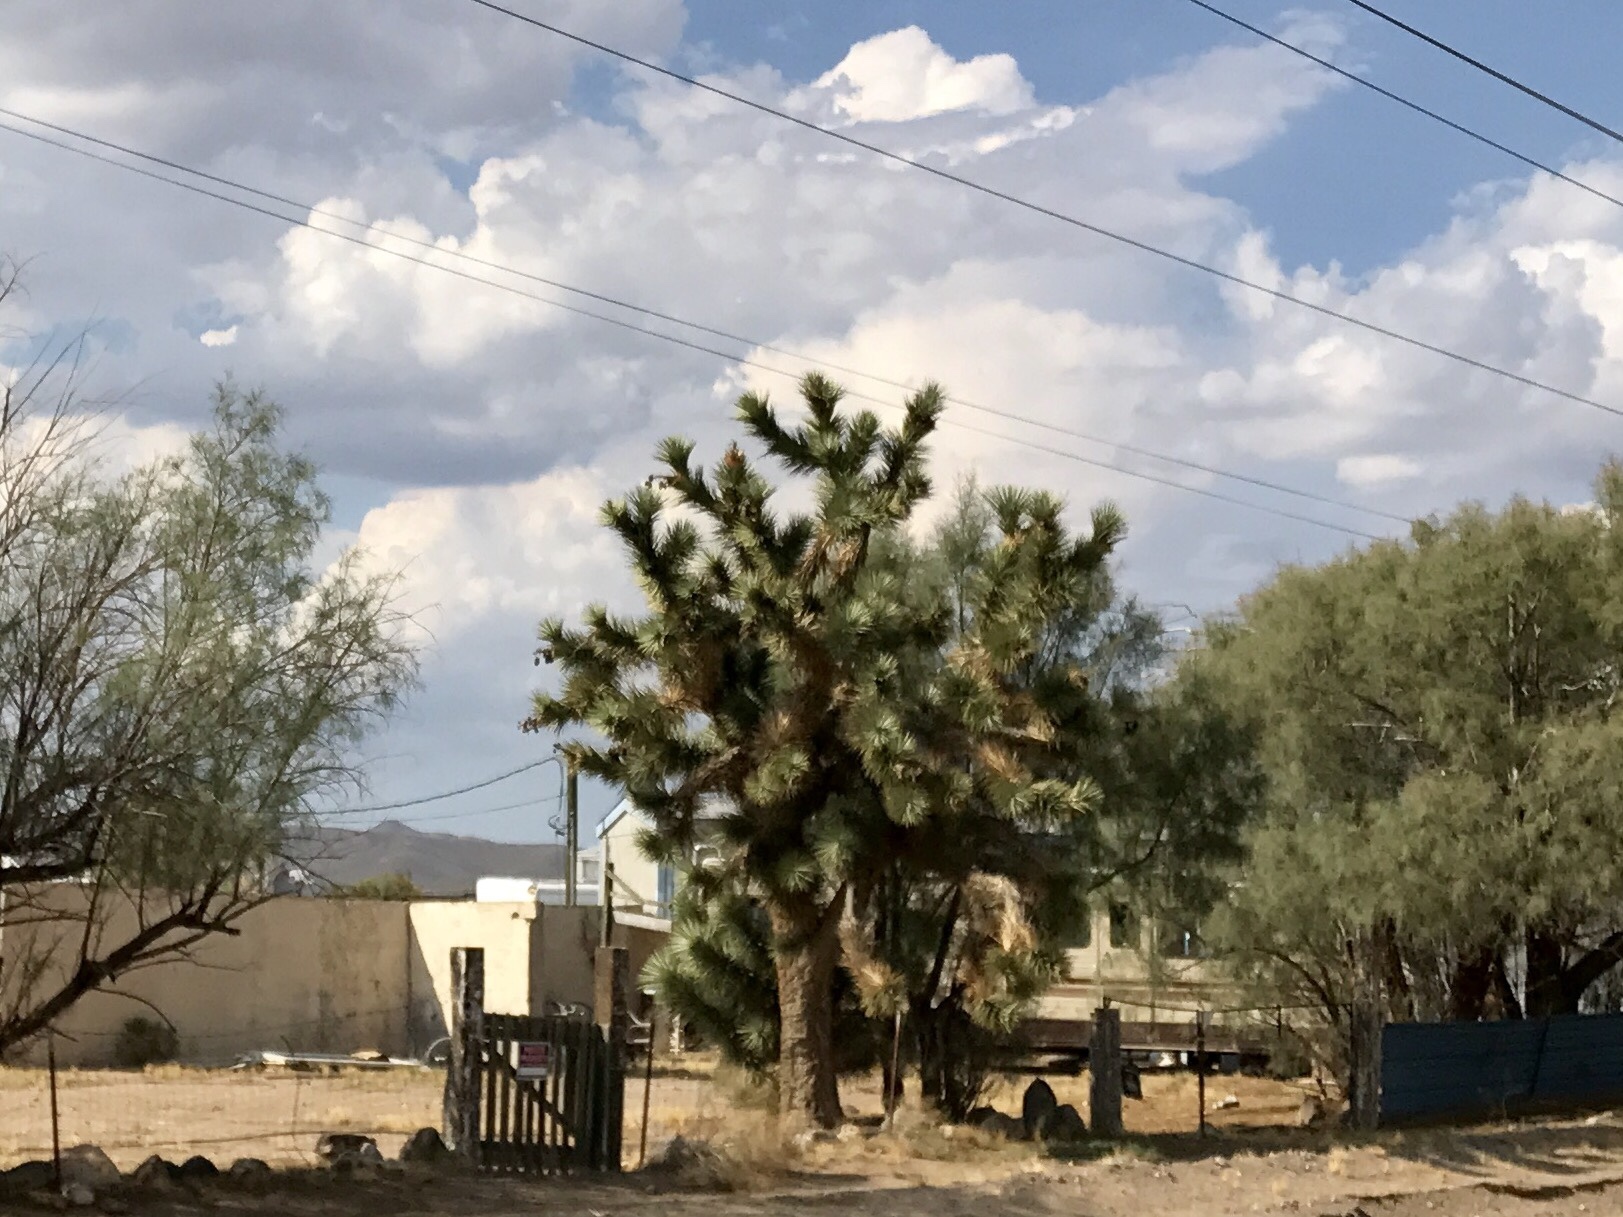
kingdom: Plantae
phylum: Tracheophyta
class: Liliopsida
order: Asparagales
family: Asparagaceae
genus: Yucca
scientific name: Yucca brevifolia
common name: Joshua tree
